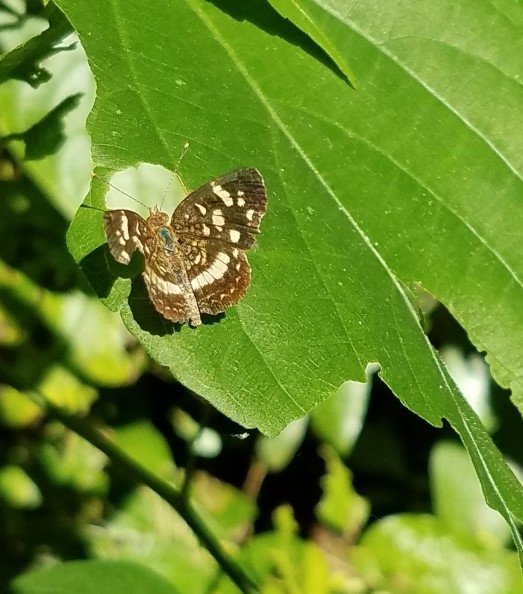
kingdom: Animalia
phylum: Arthropoda
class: Insecta
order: Lepidoptera
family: Nymphalidae
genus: Anthanassa
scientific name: Anthanassa tulcis
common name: Pale-banded crescent
